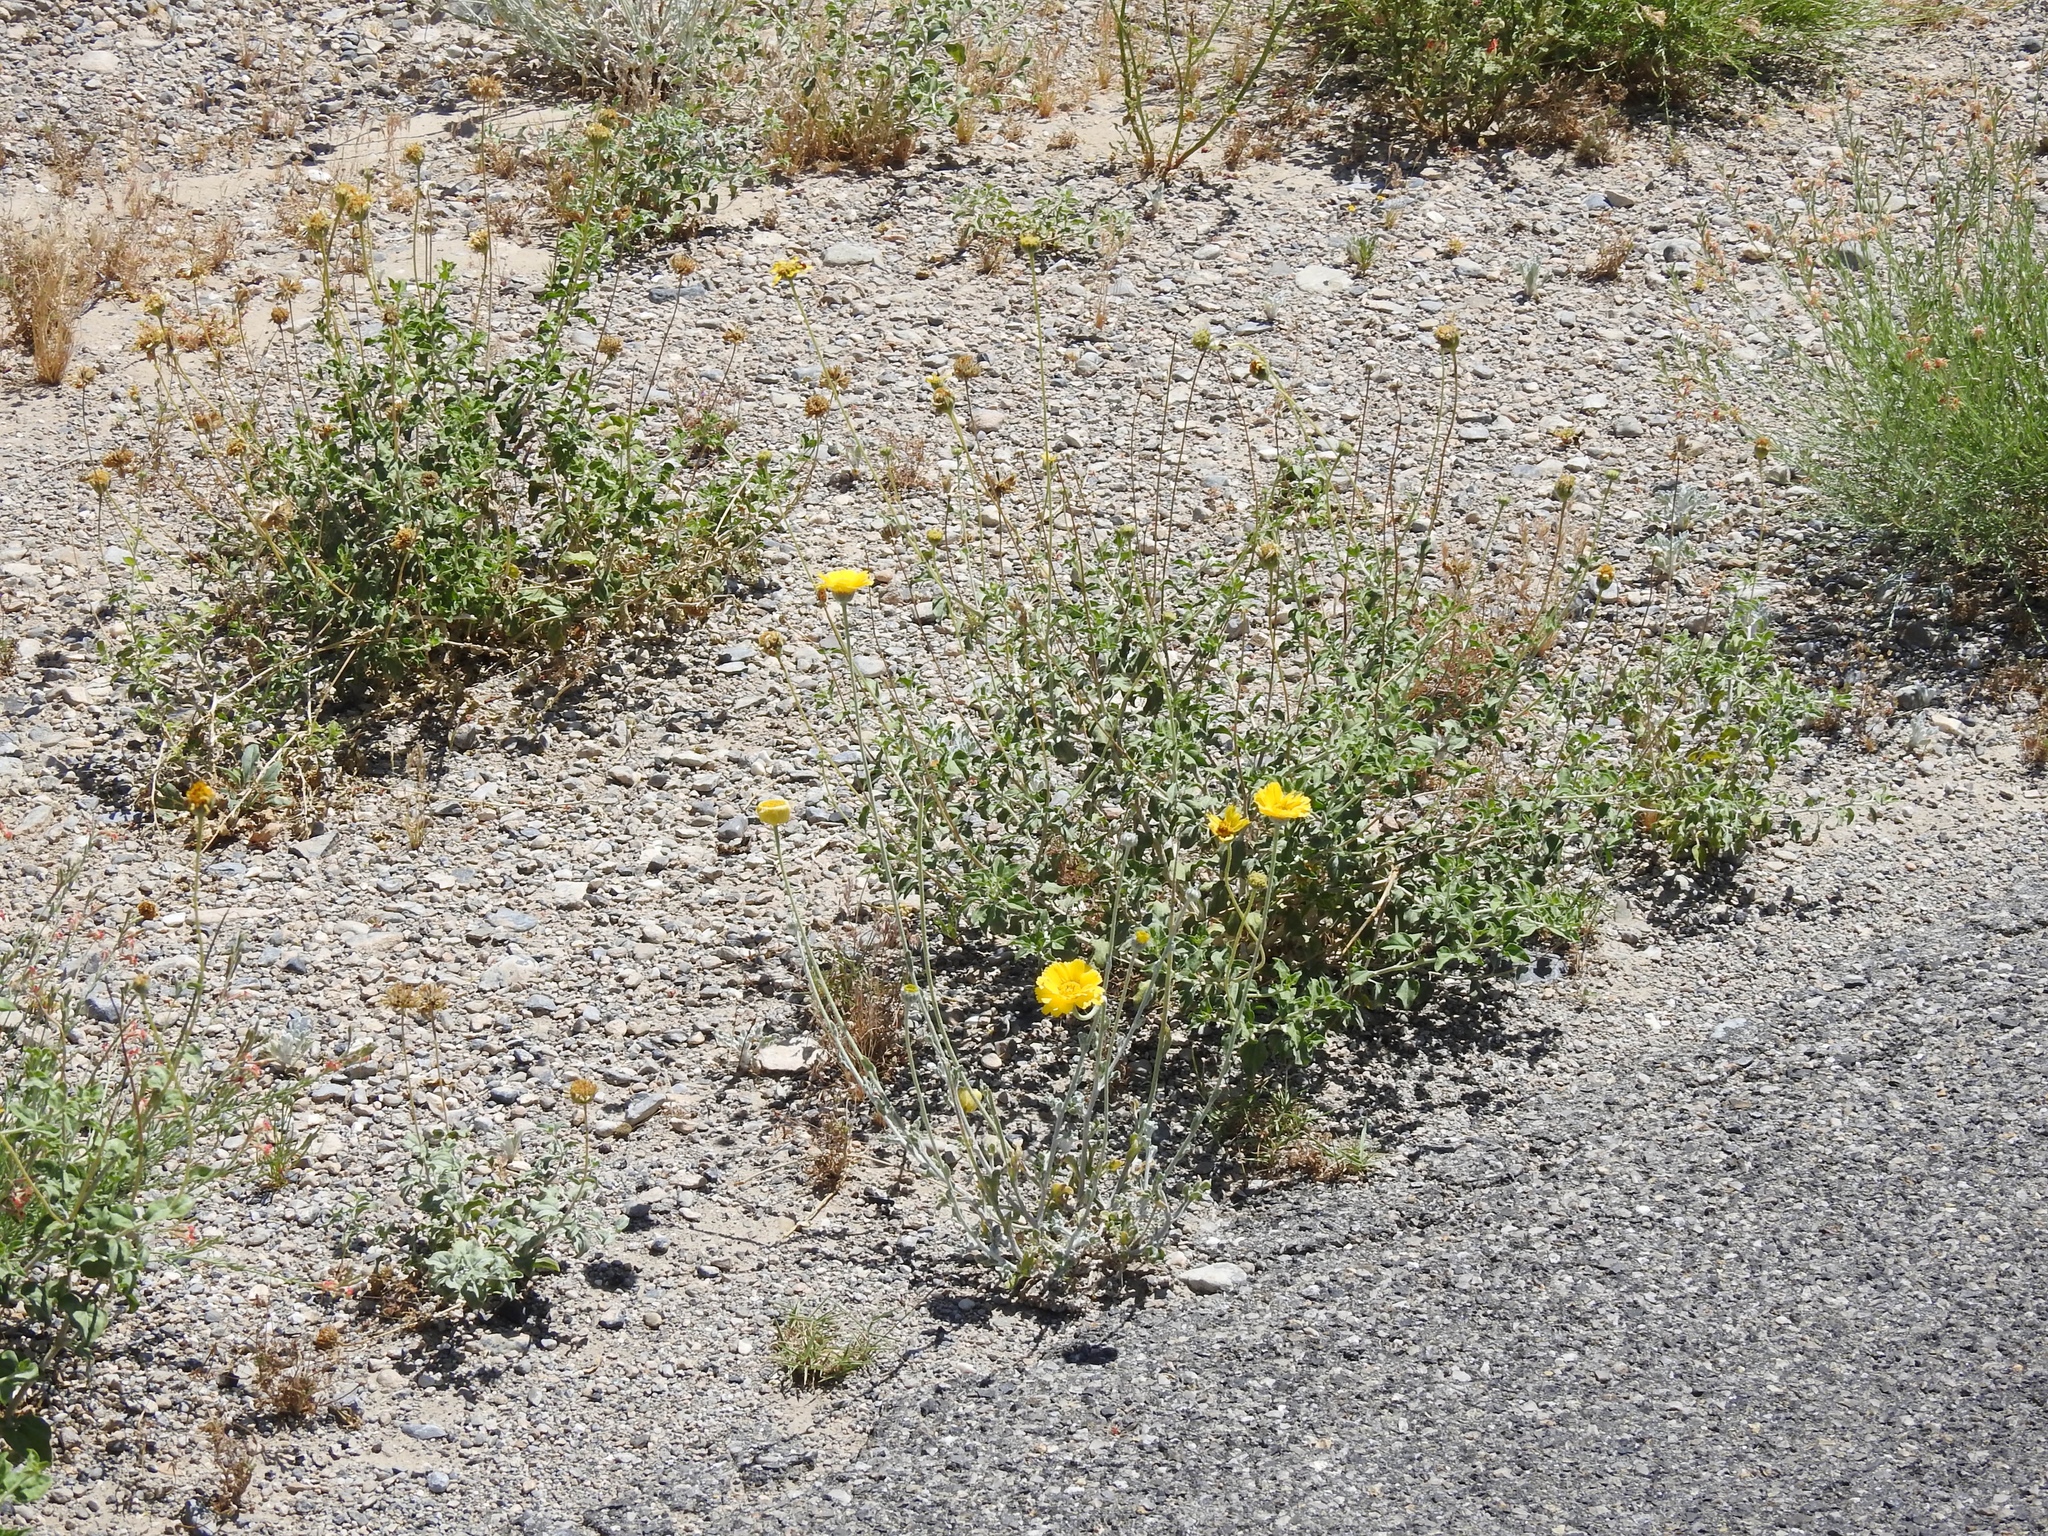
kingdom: Plantae
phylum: Tracheophyta
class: Magnoliopsida
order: Asterales
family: Asteraceae
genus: Baileya
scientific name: Baileya multiradiata
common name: Desert-marigold
